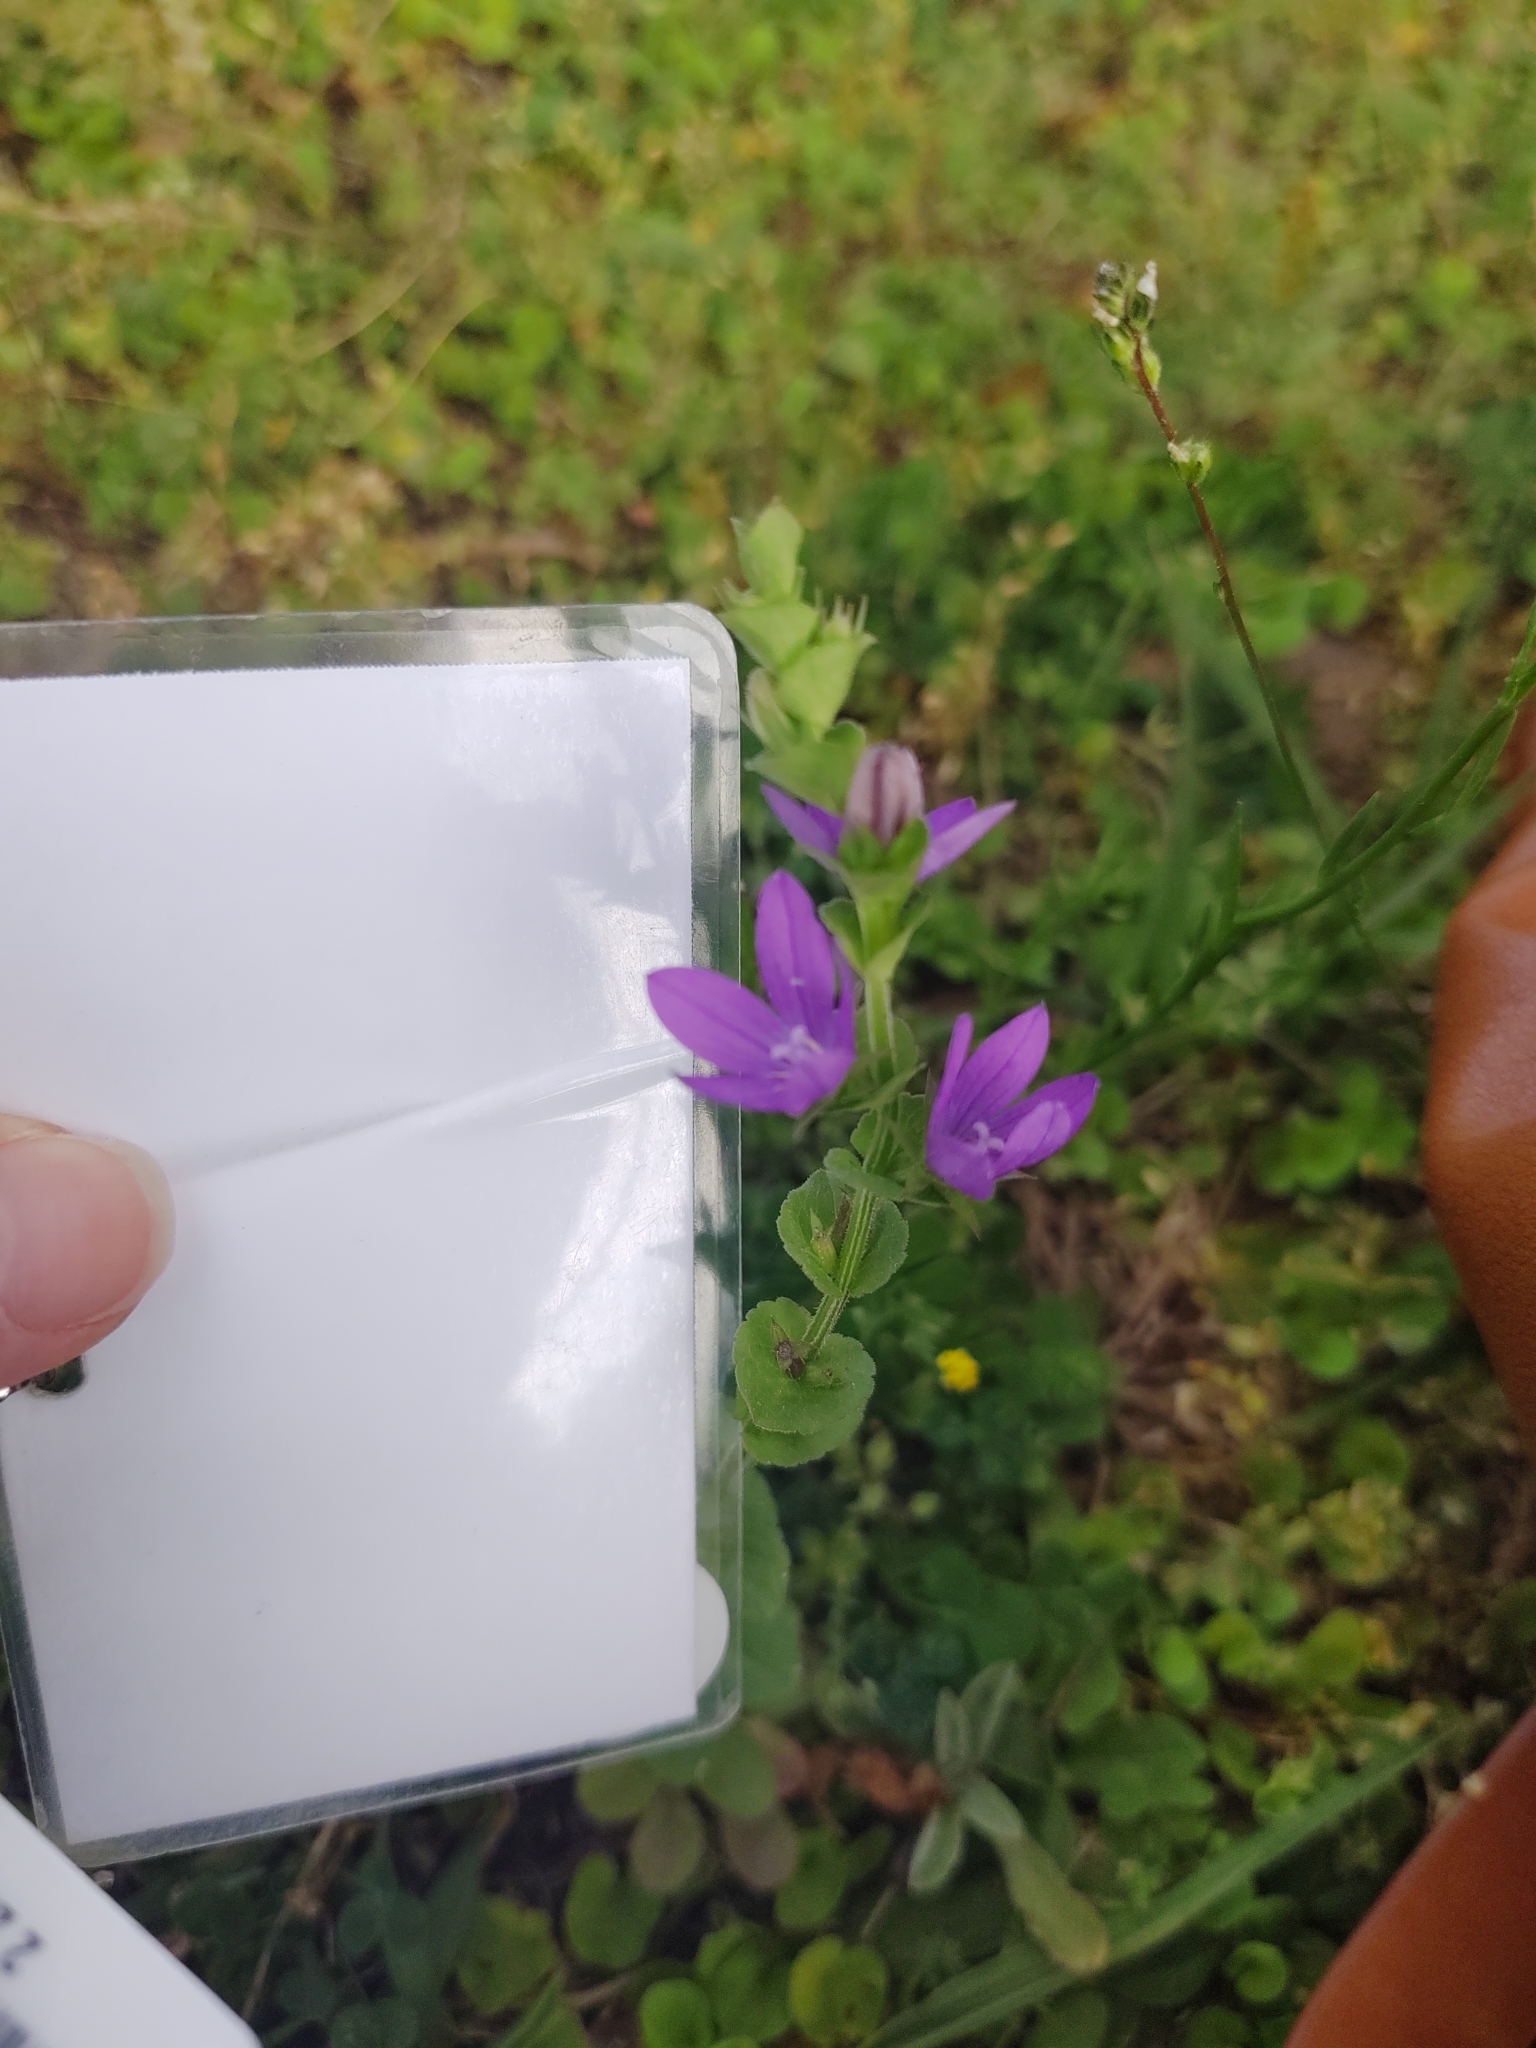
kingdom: Plantae
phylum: Tracheophyta
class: Magnoliopsida
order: Asterales
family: Campanulaceae
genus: Triodanis
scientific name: Triodanis perfoliata
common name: Clasping venus' looking-glass
